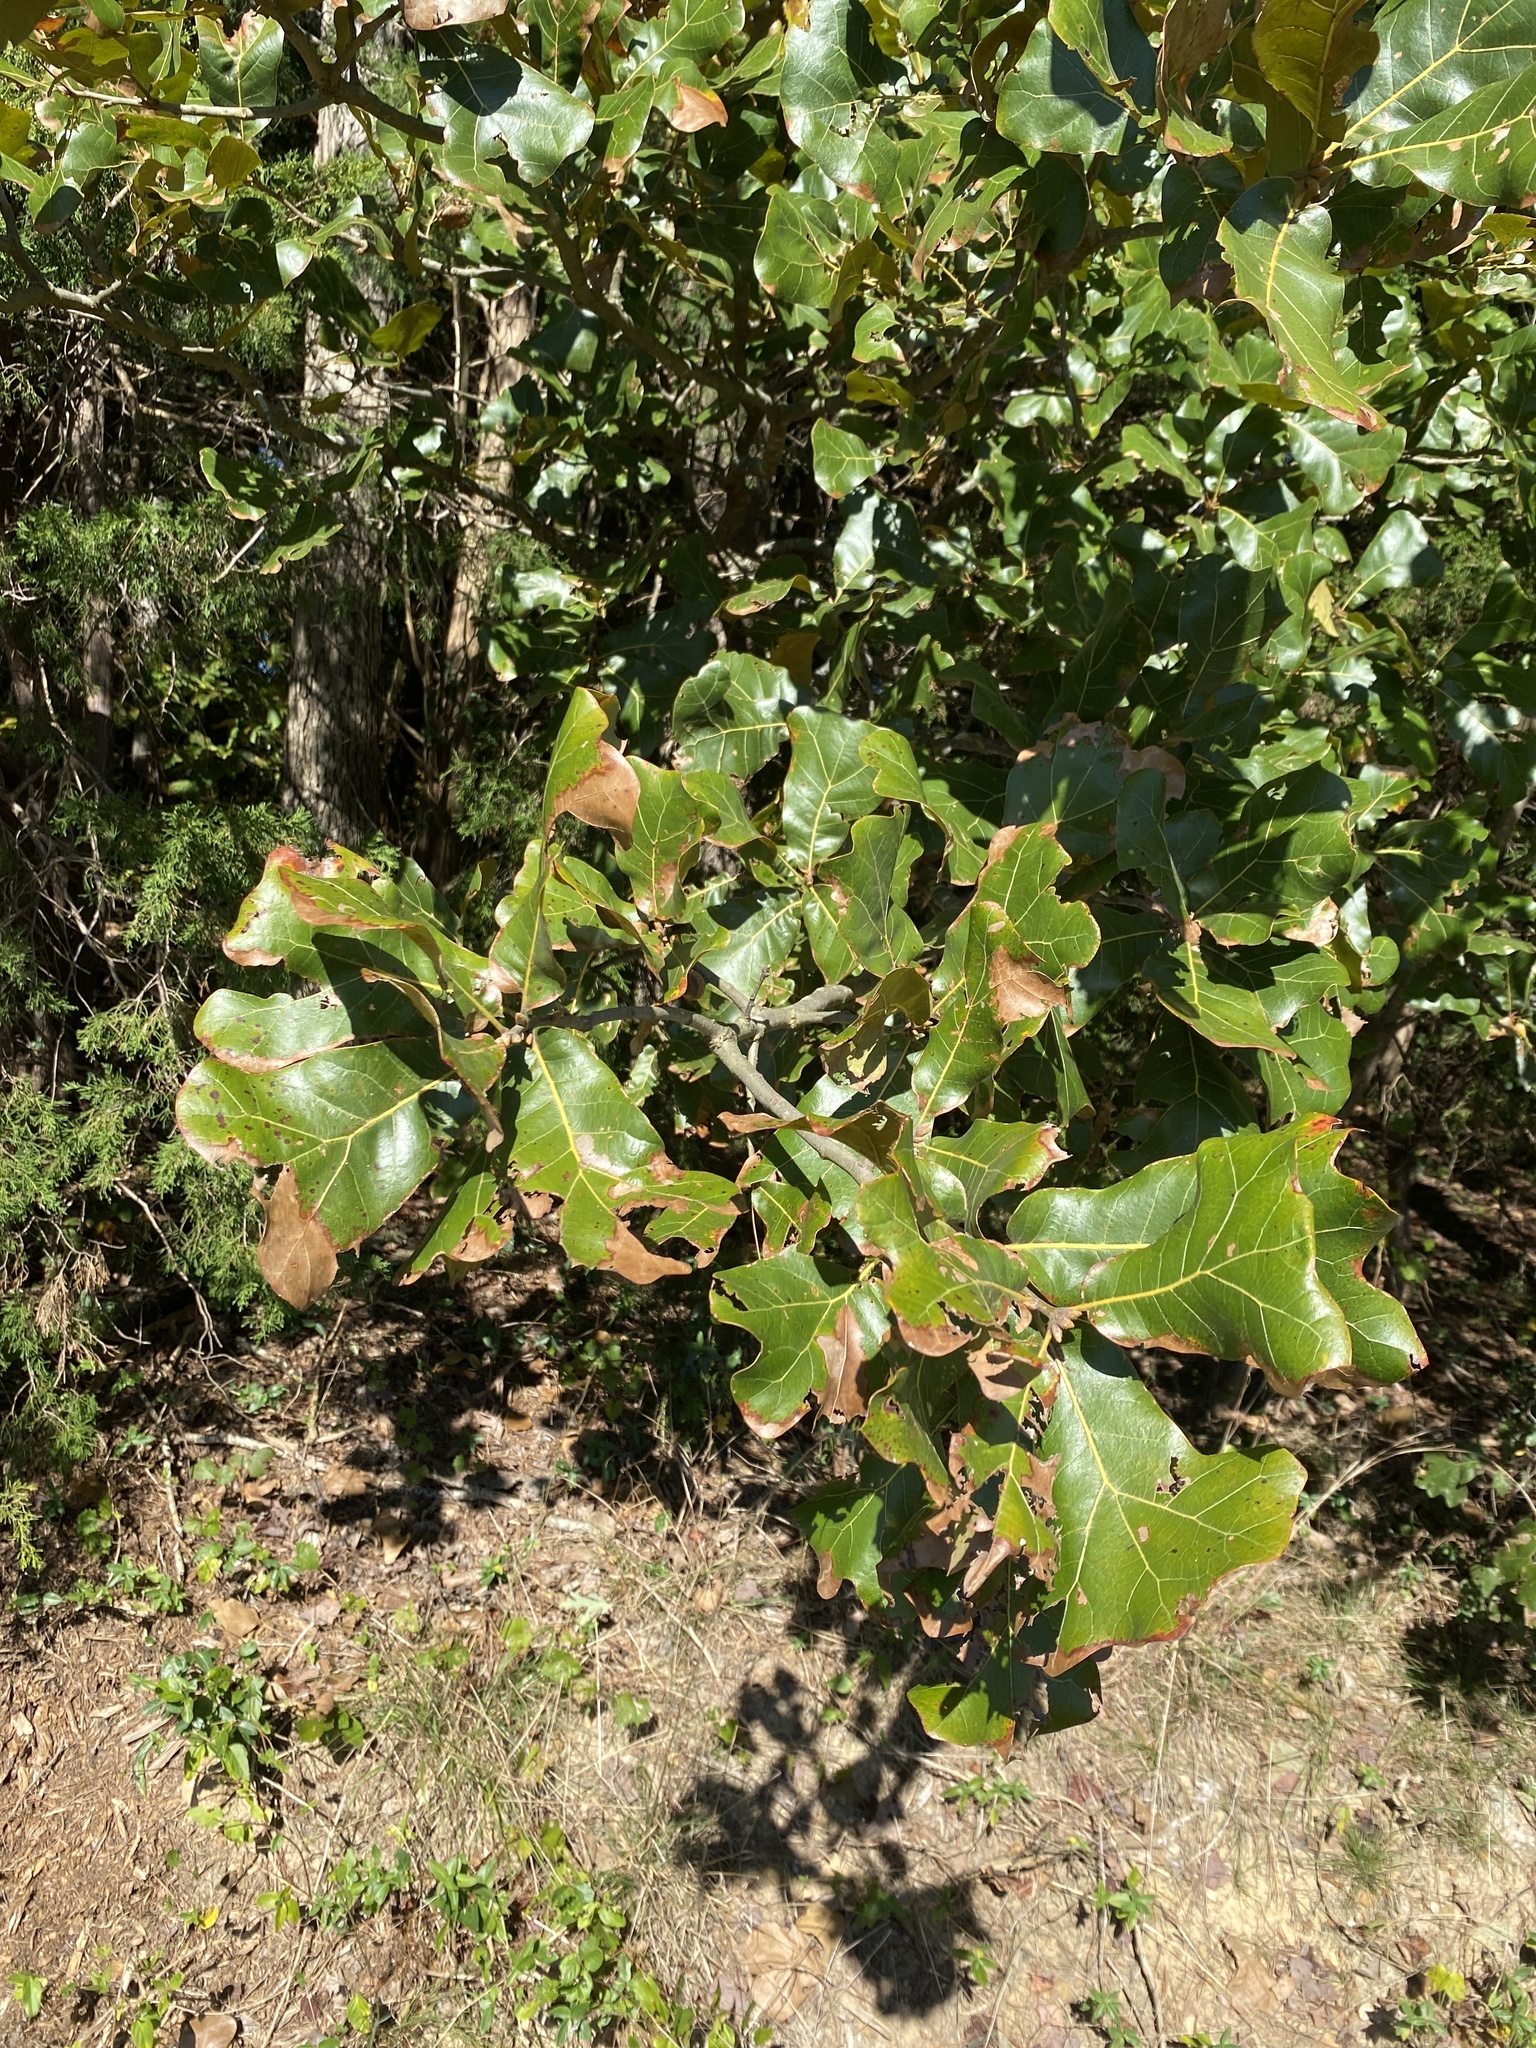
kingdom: Plantae
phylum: Tracheophyta
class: Magnoliopsida
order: Fagales
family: Fagaceae
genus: Quercus
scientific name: Quercus marilandica
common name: Blackjack oak
